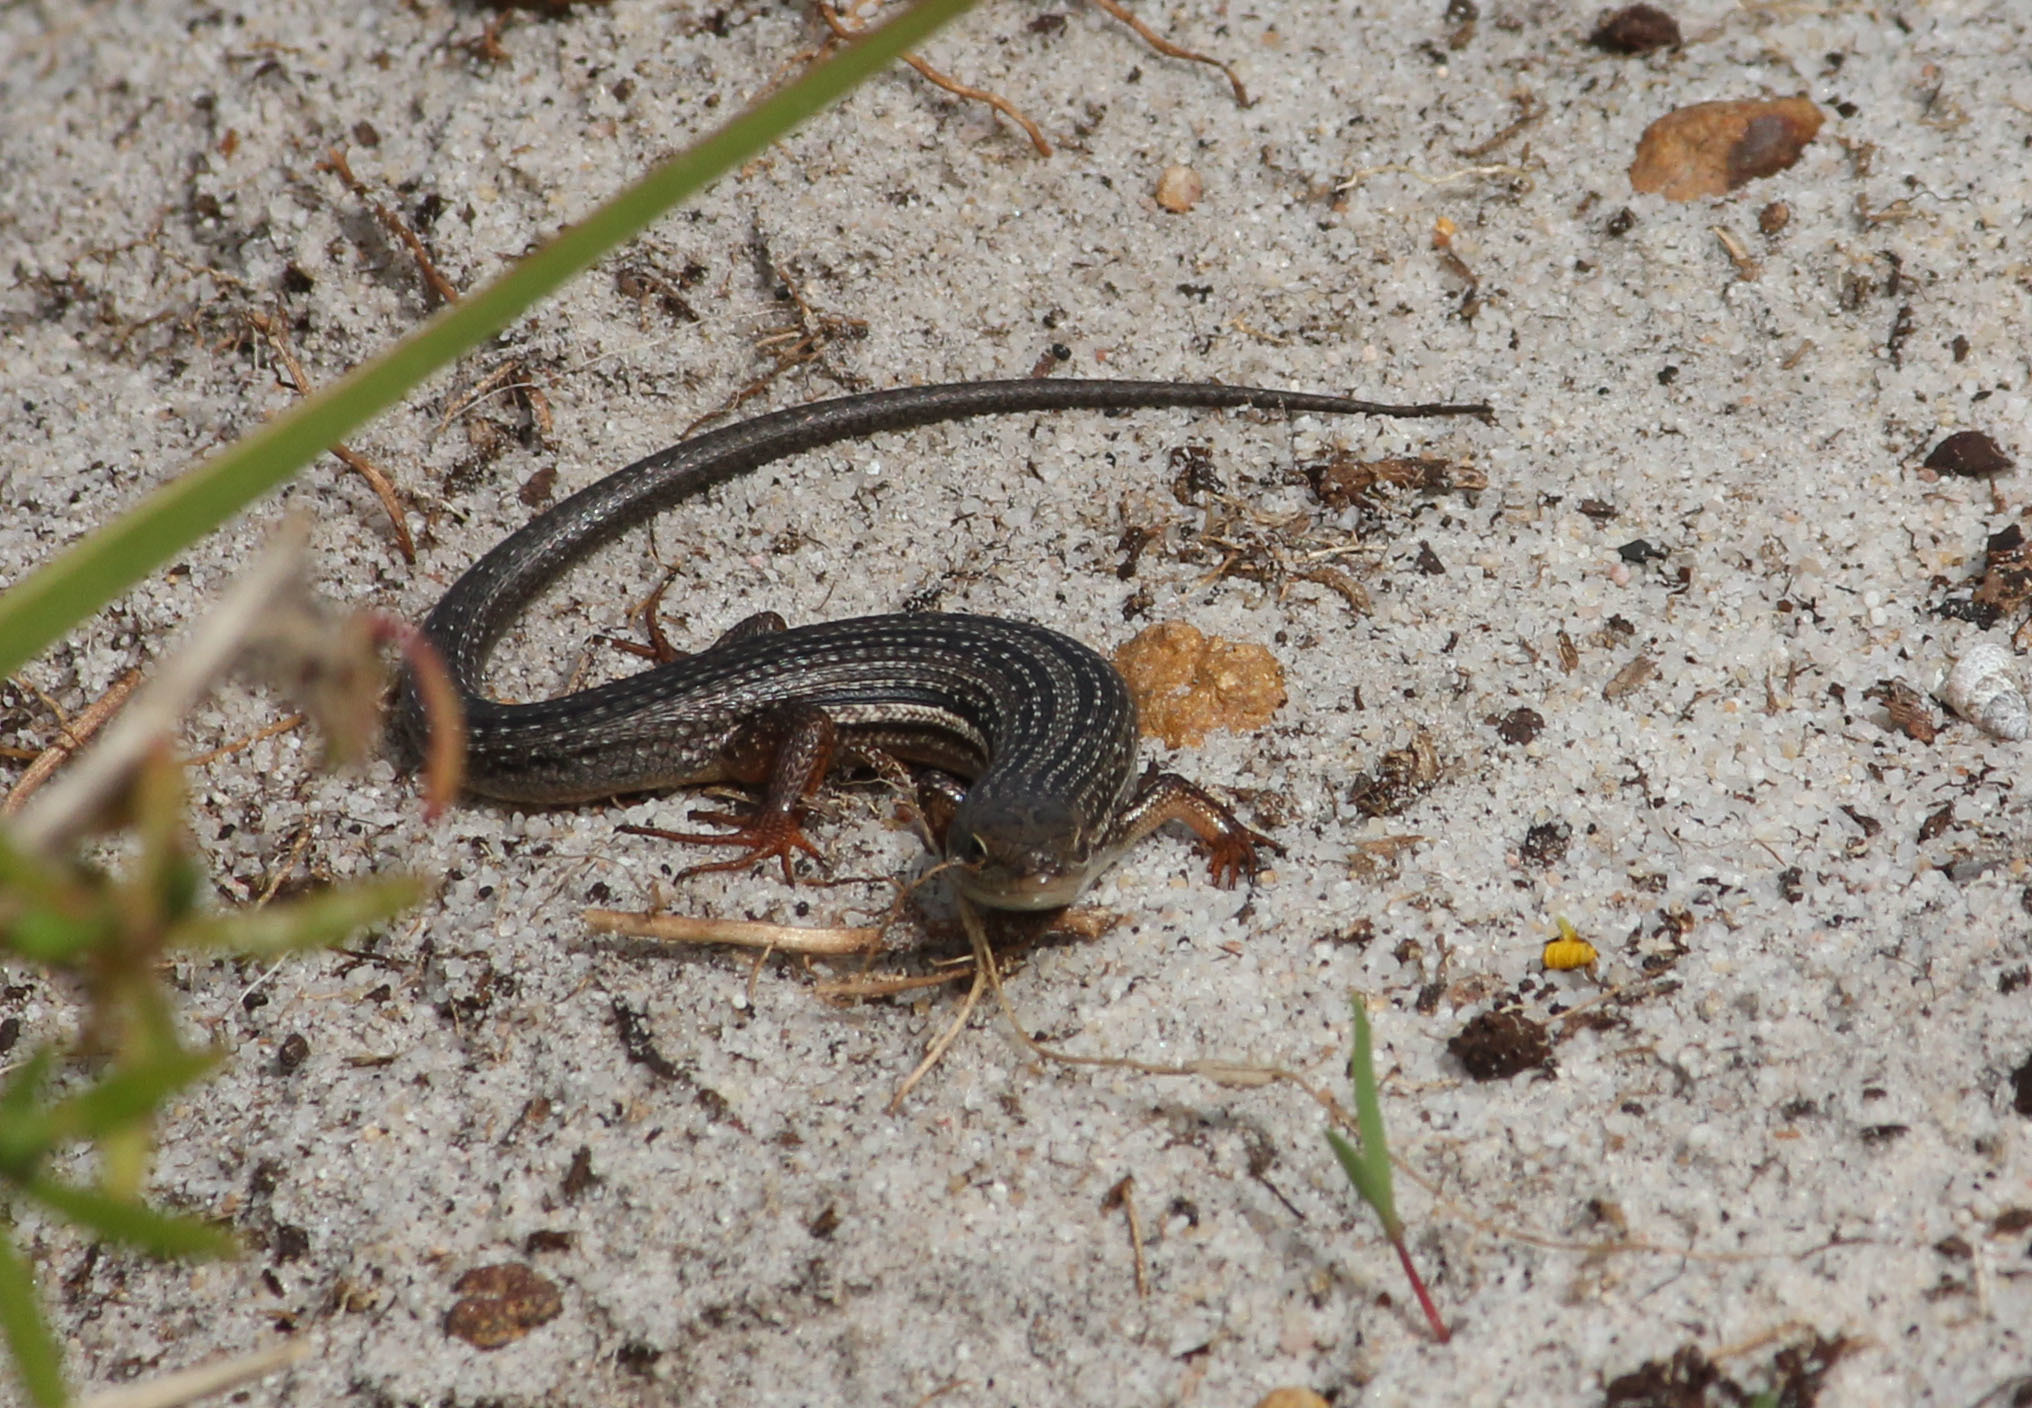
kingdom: Animalia
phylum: Chordata
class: Squamata
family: Scincidae
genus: Trachylepis
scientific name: Trachylepis homalocephala
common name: Red-sided skink
